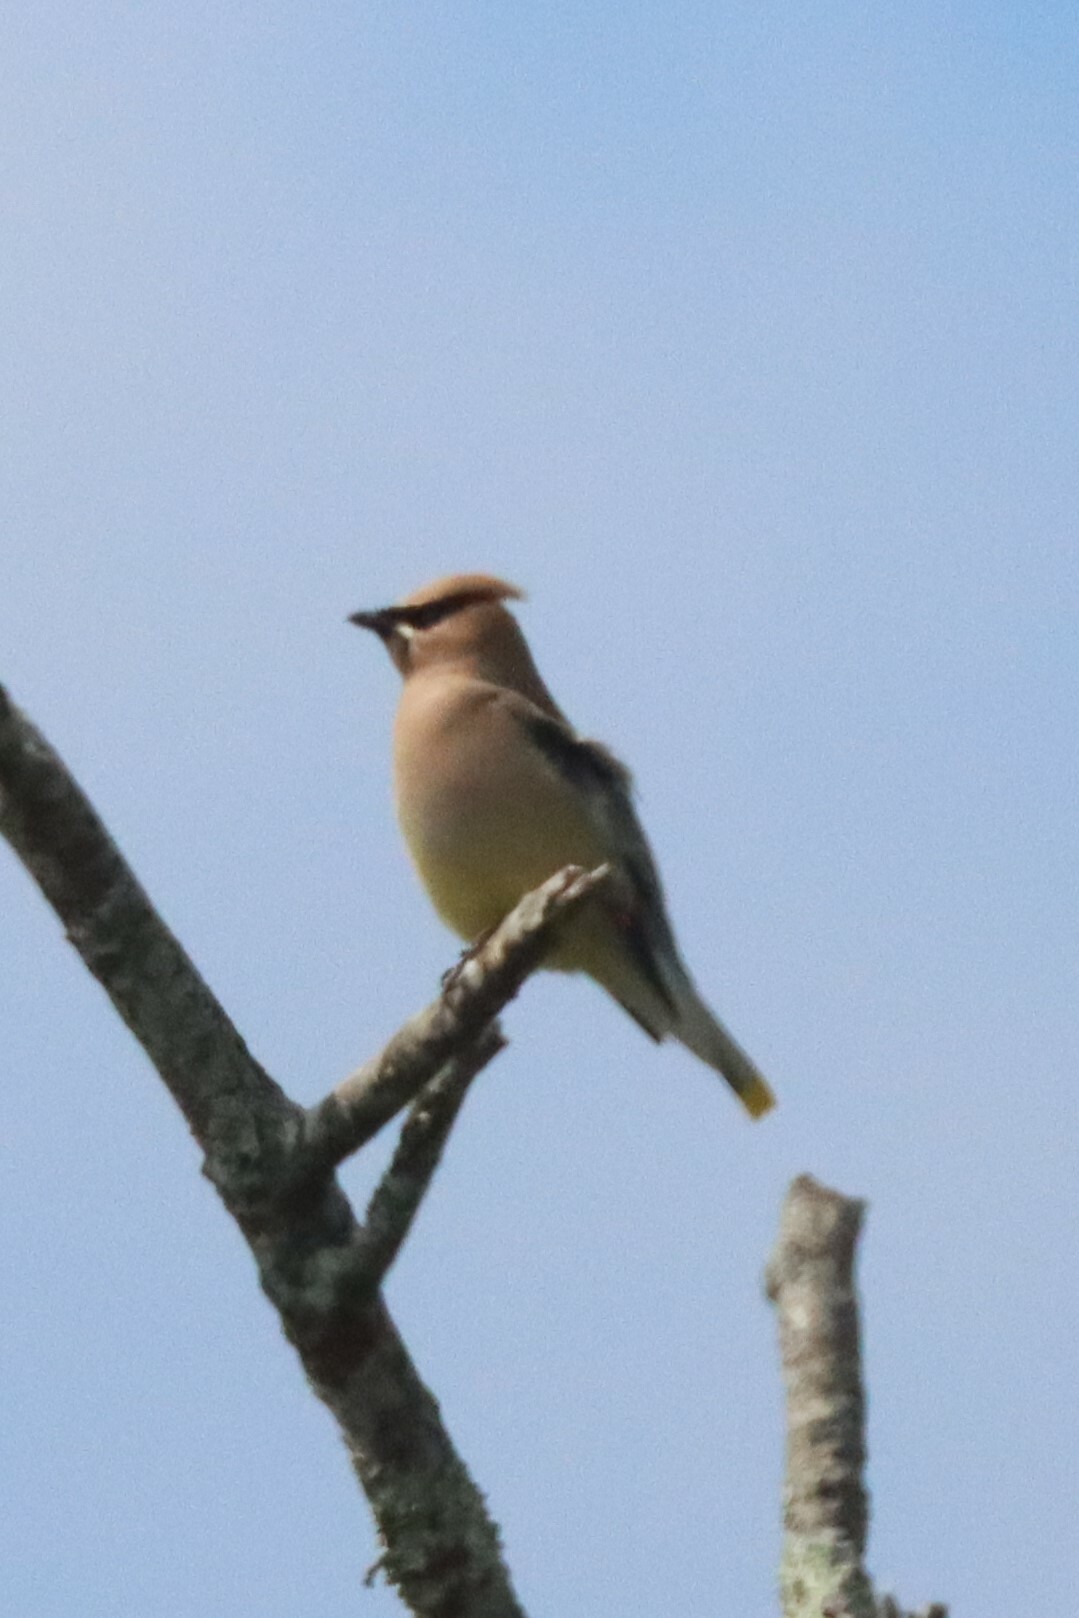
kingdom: Animalia
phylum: Chordata
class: Aves
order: Passeriformes
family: Bombycillidae
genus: Bombycilla
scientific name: Bombycilla cedrorum
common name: Cedar waxwing
